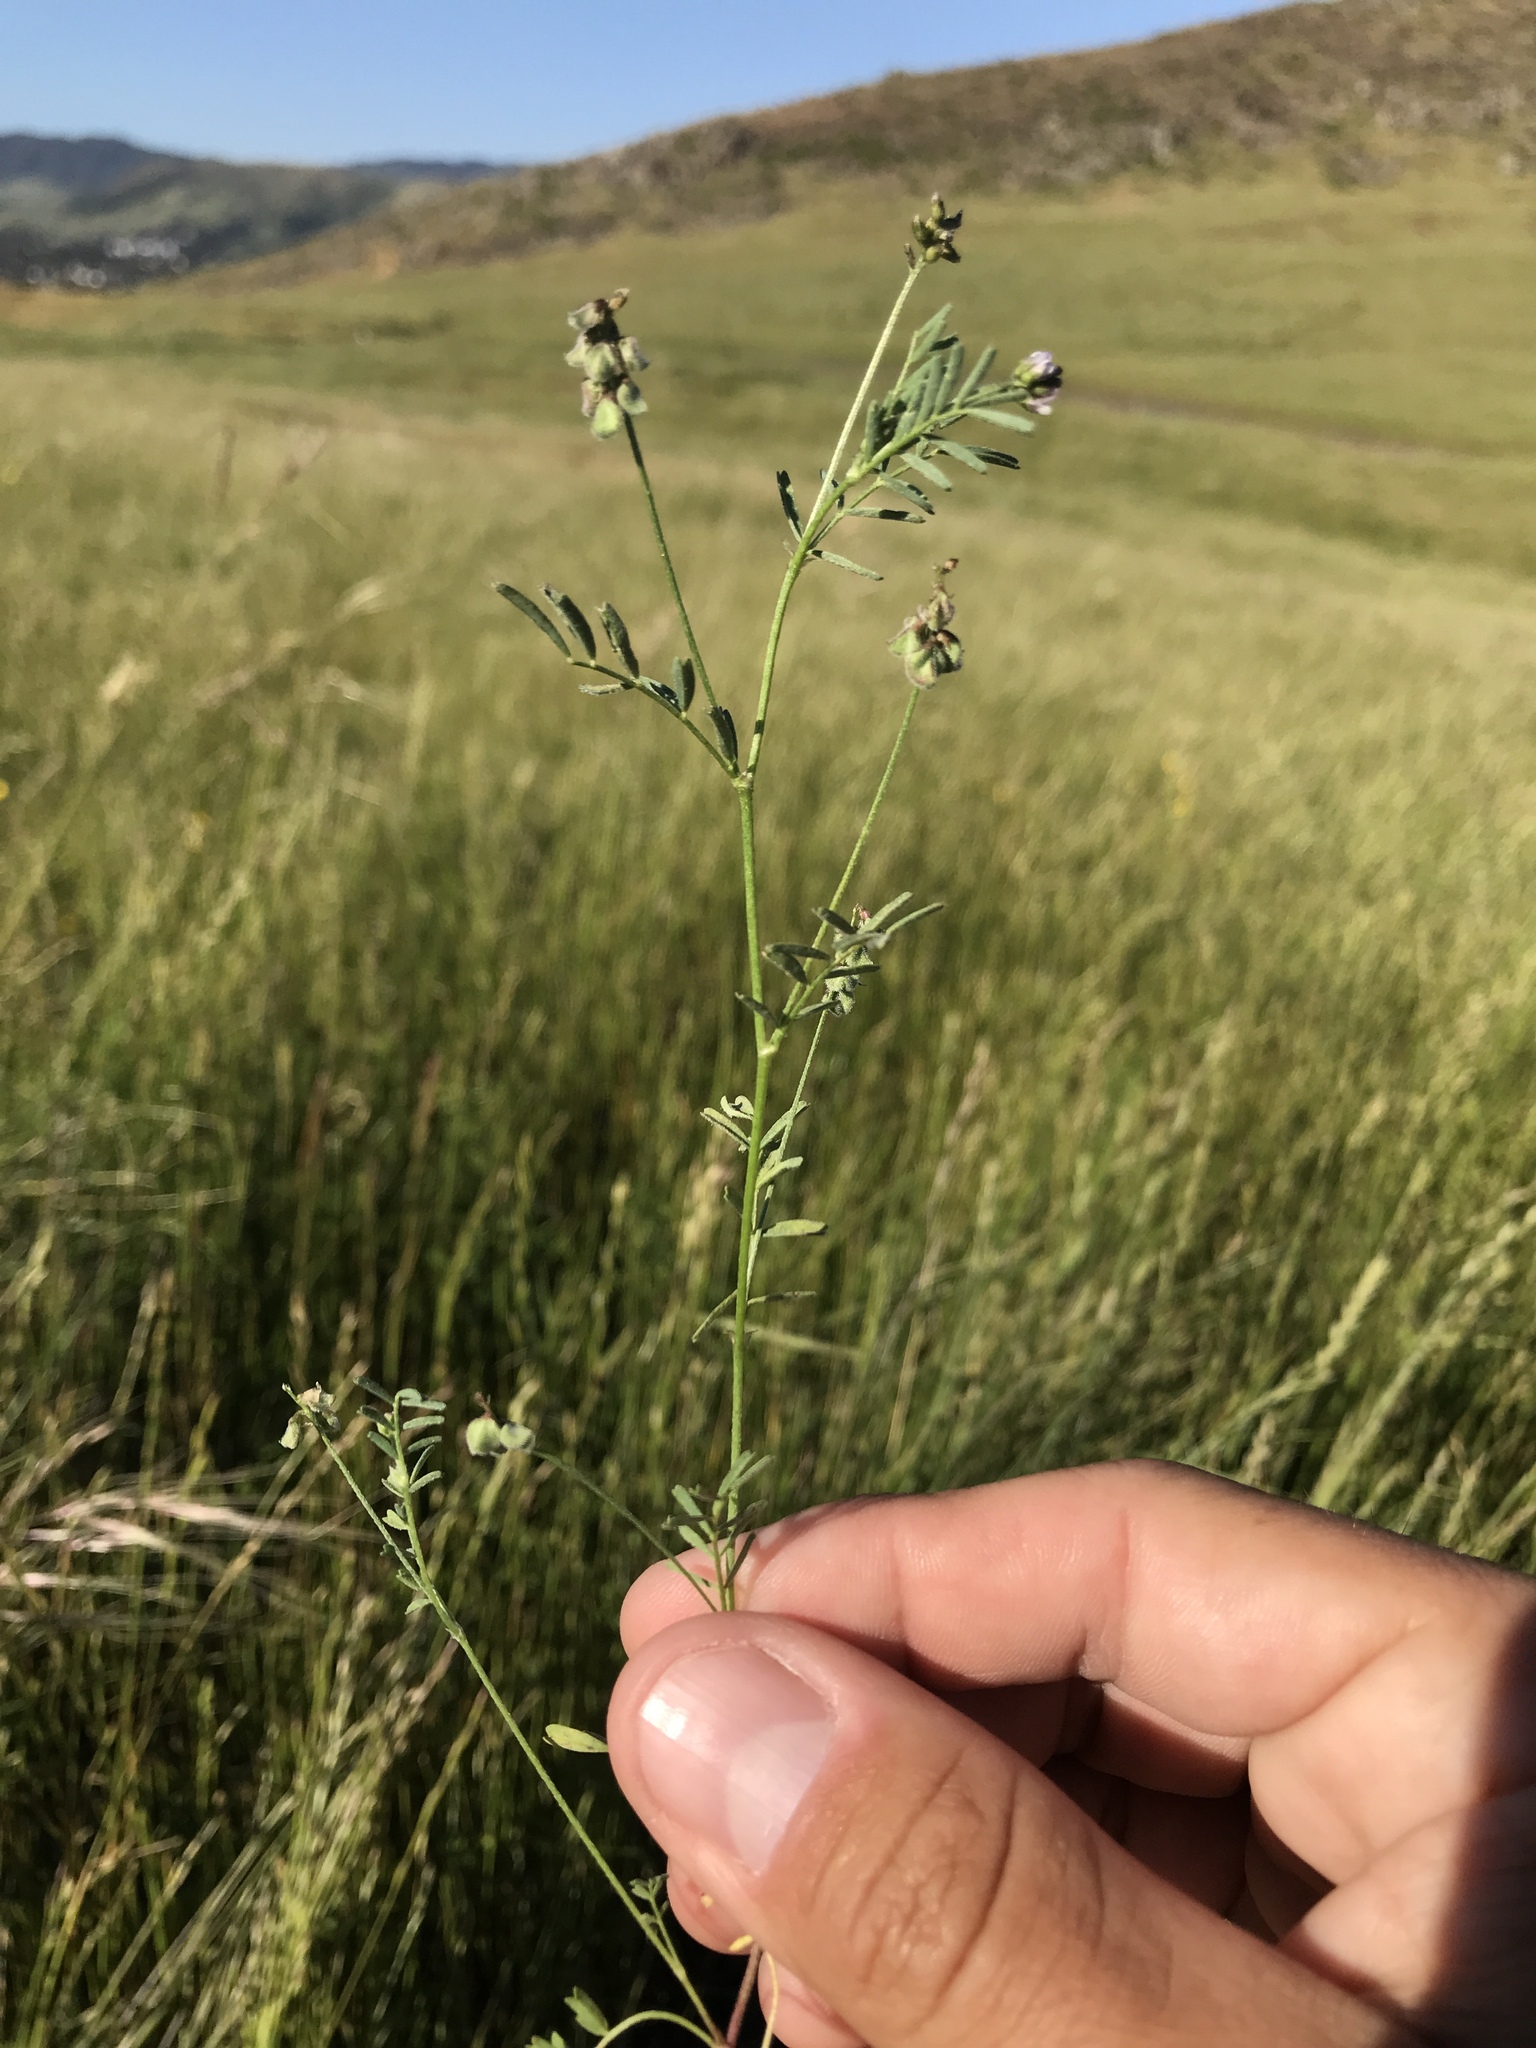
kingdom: Plantae
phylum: Tracheophyta
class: Magnoliopsida
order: Fabales
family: Fabaceae
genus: Astragalus
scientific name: Astragalus gambelianus
